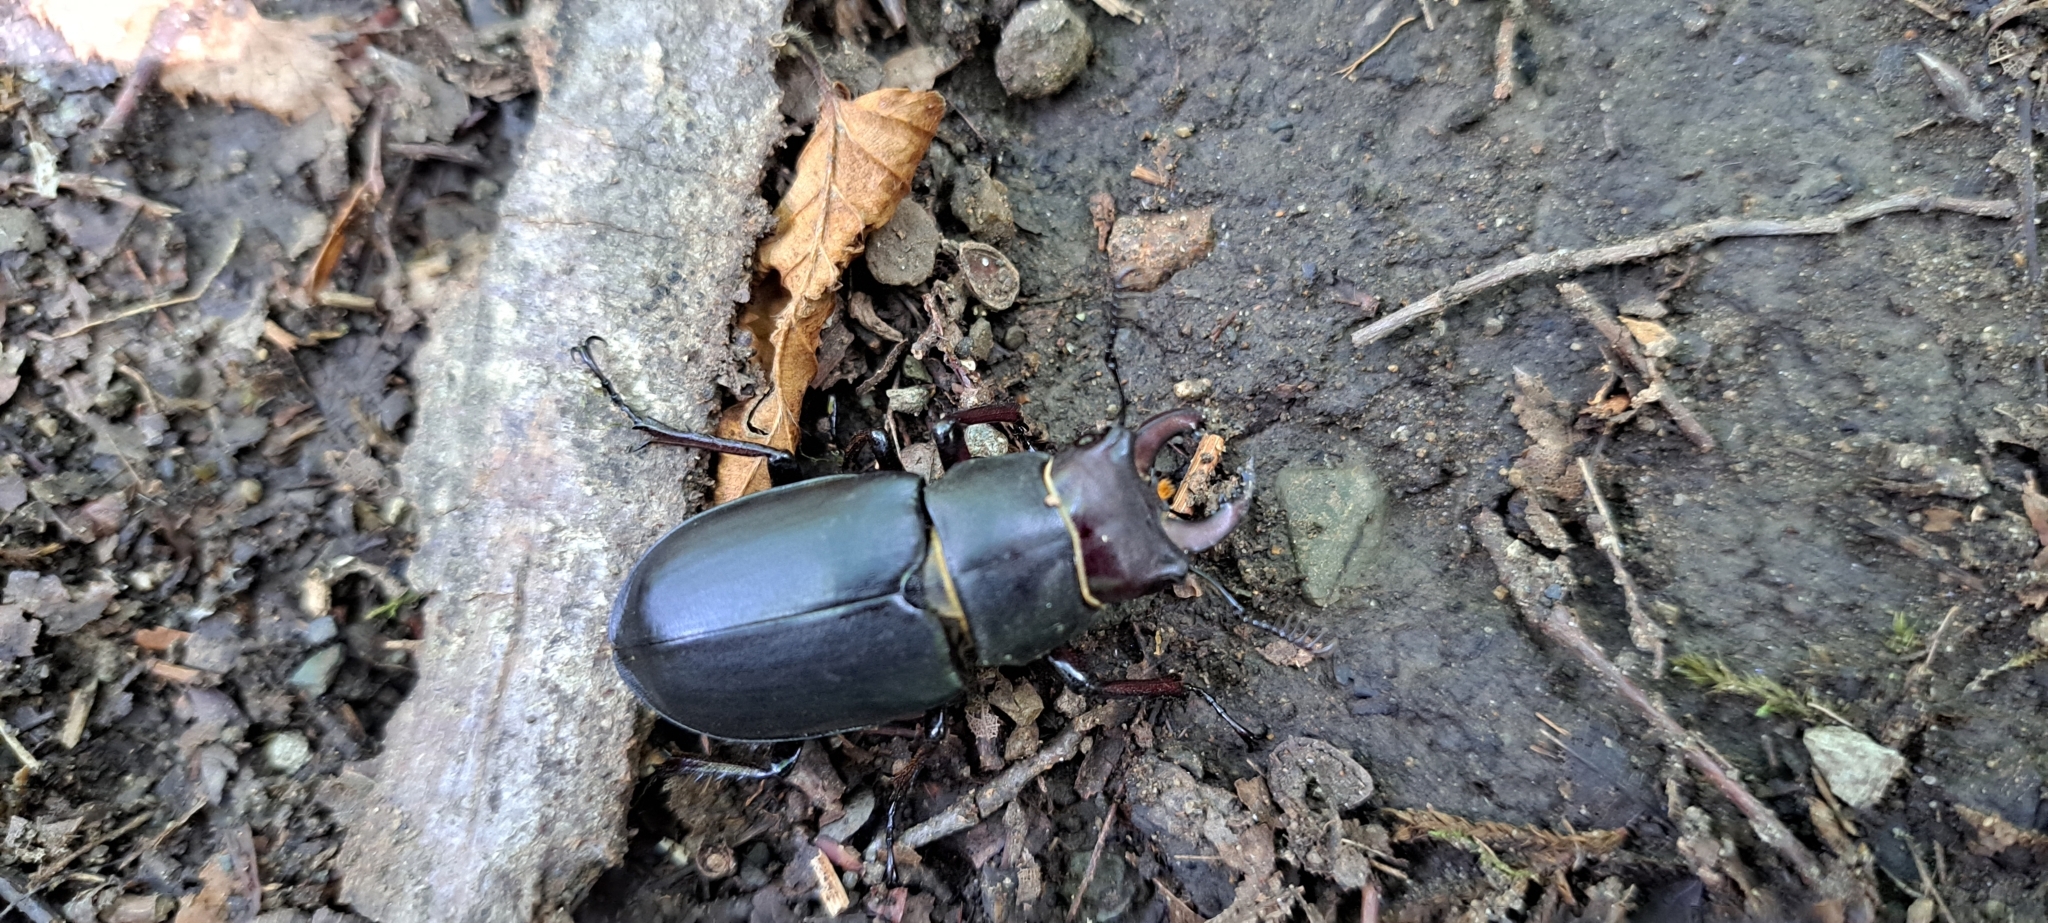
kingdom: Animalia
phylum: Arthropoda
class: Insecta
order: Coleoptera
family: Lucanidae
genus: Lucanus
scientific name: Lucanus ibericus
